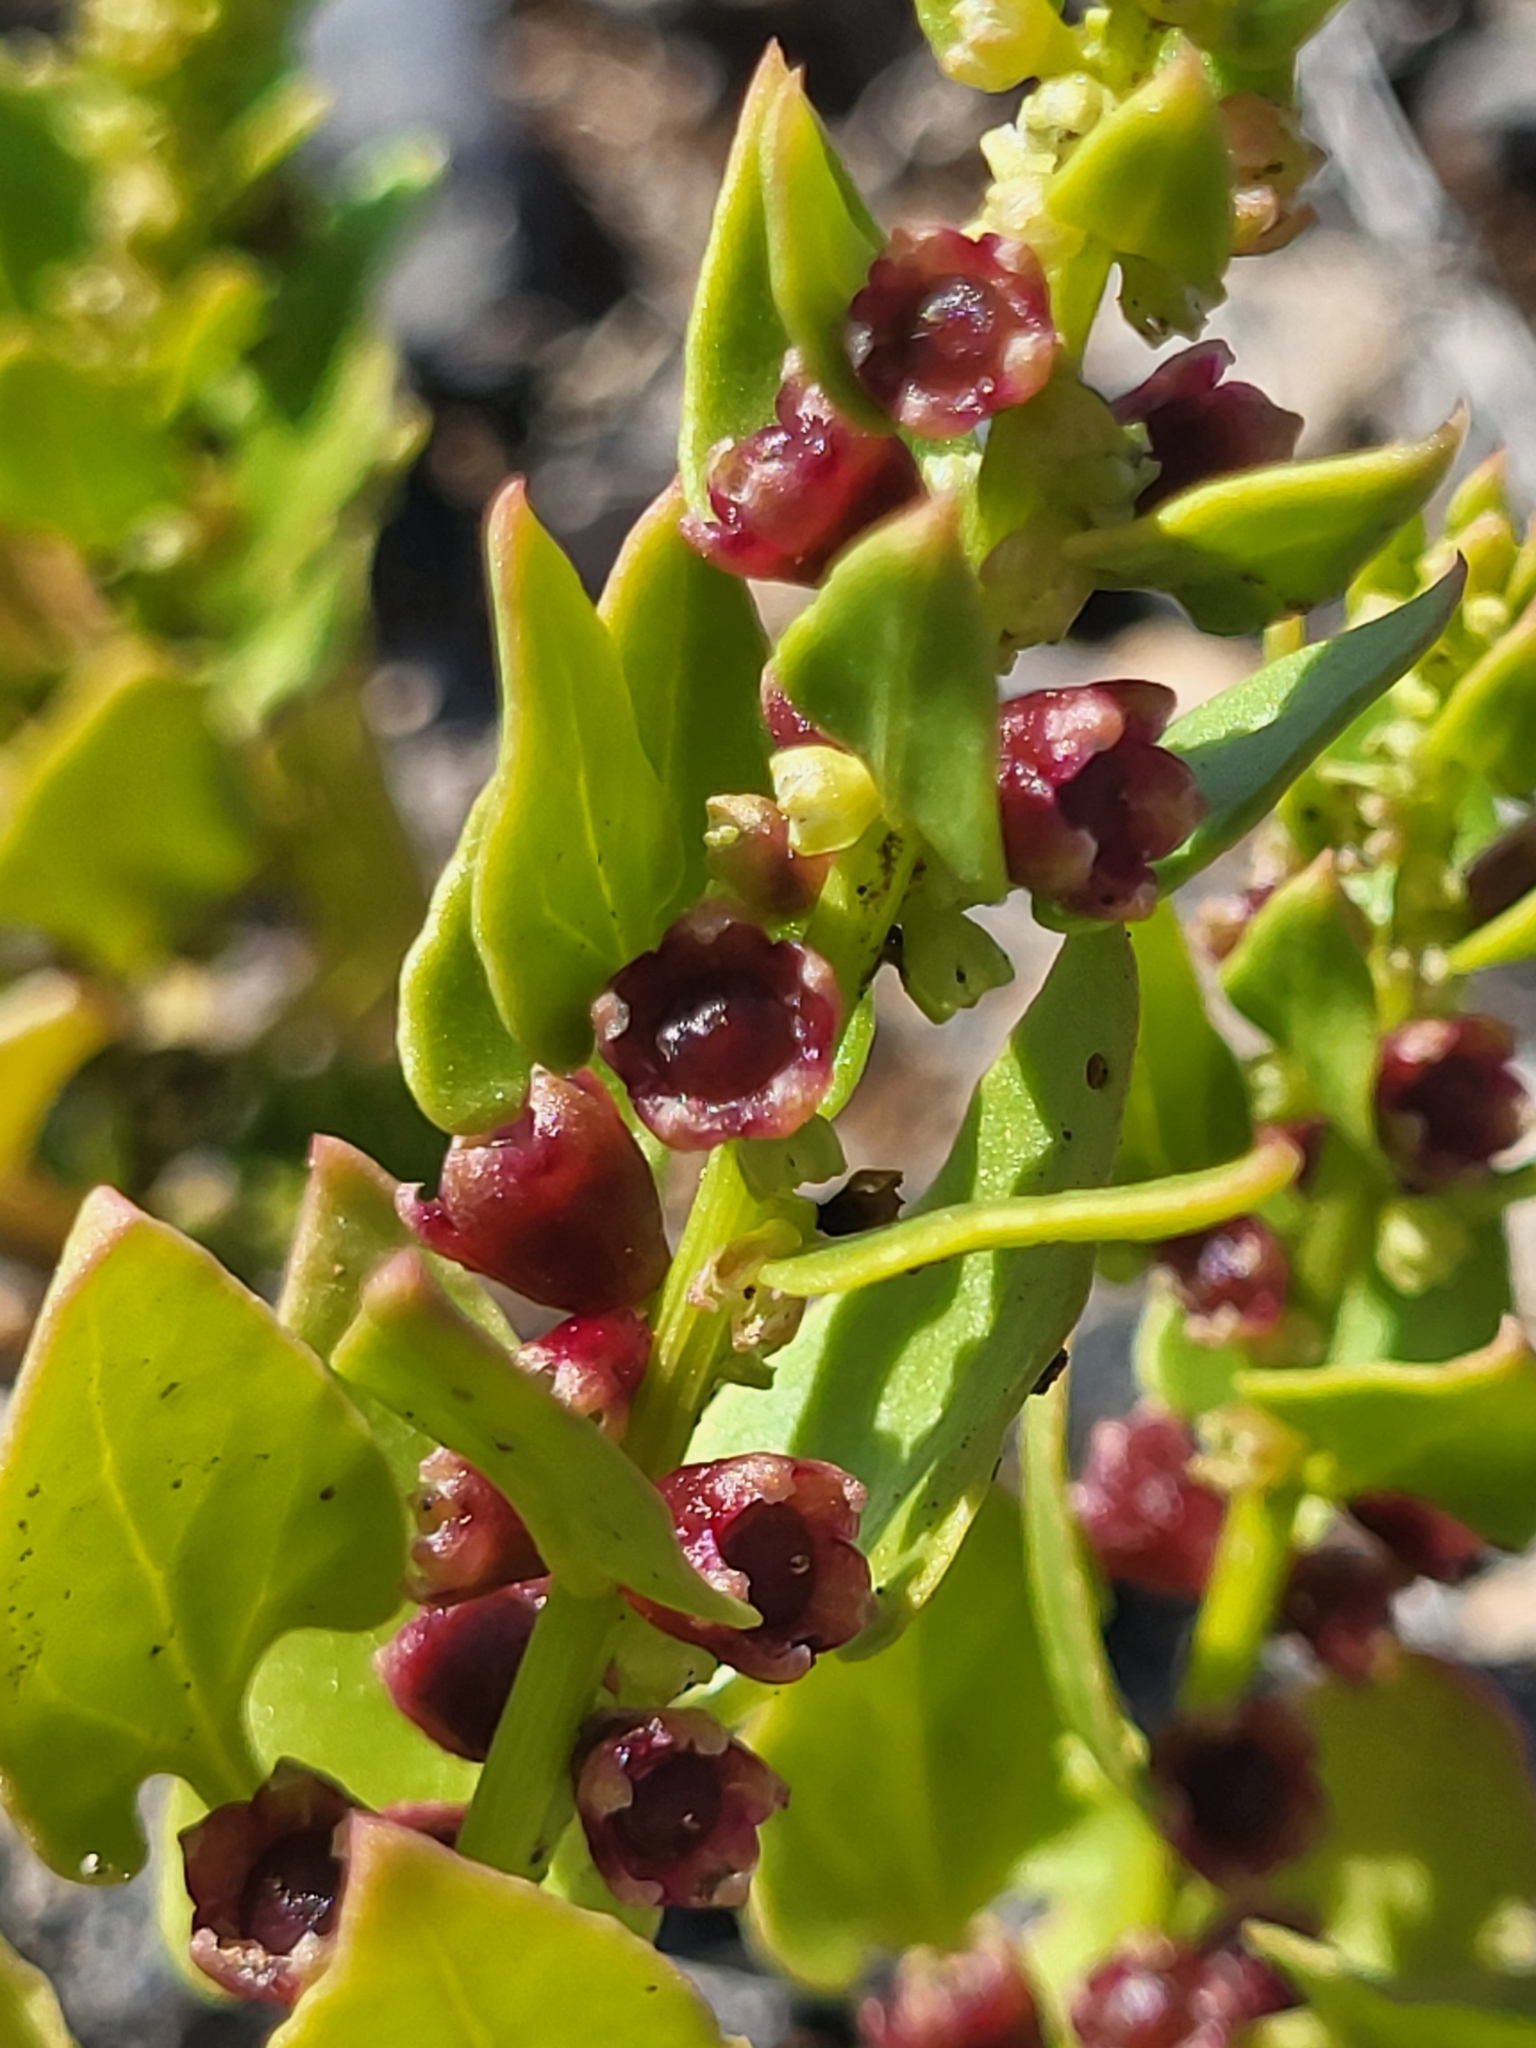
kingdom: Plantae
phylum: Tracheophyta
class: Magnoliopsida
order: Caryophyllales
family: Amaranthaceae
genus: Patellifolia
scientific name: Patellifolia procumbens
